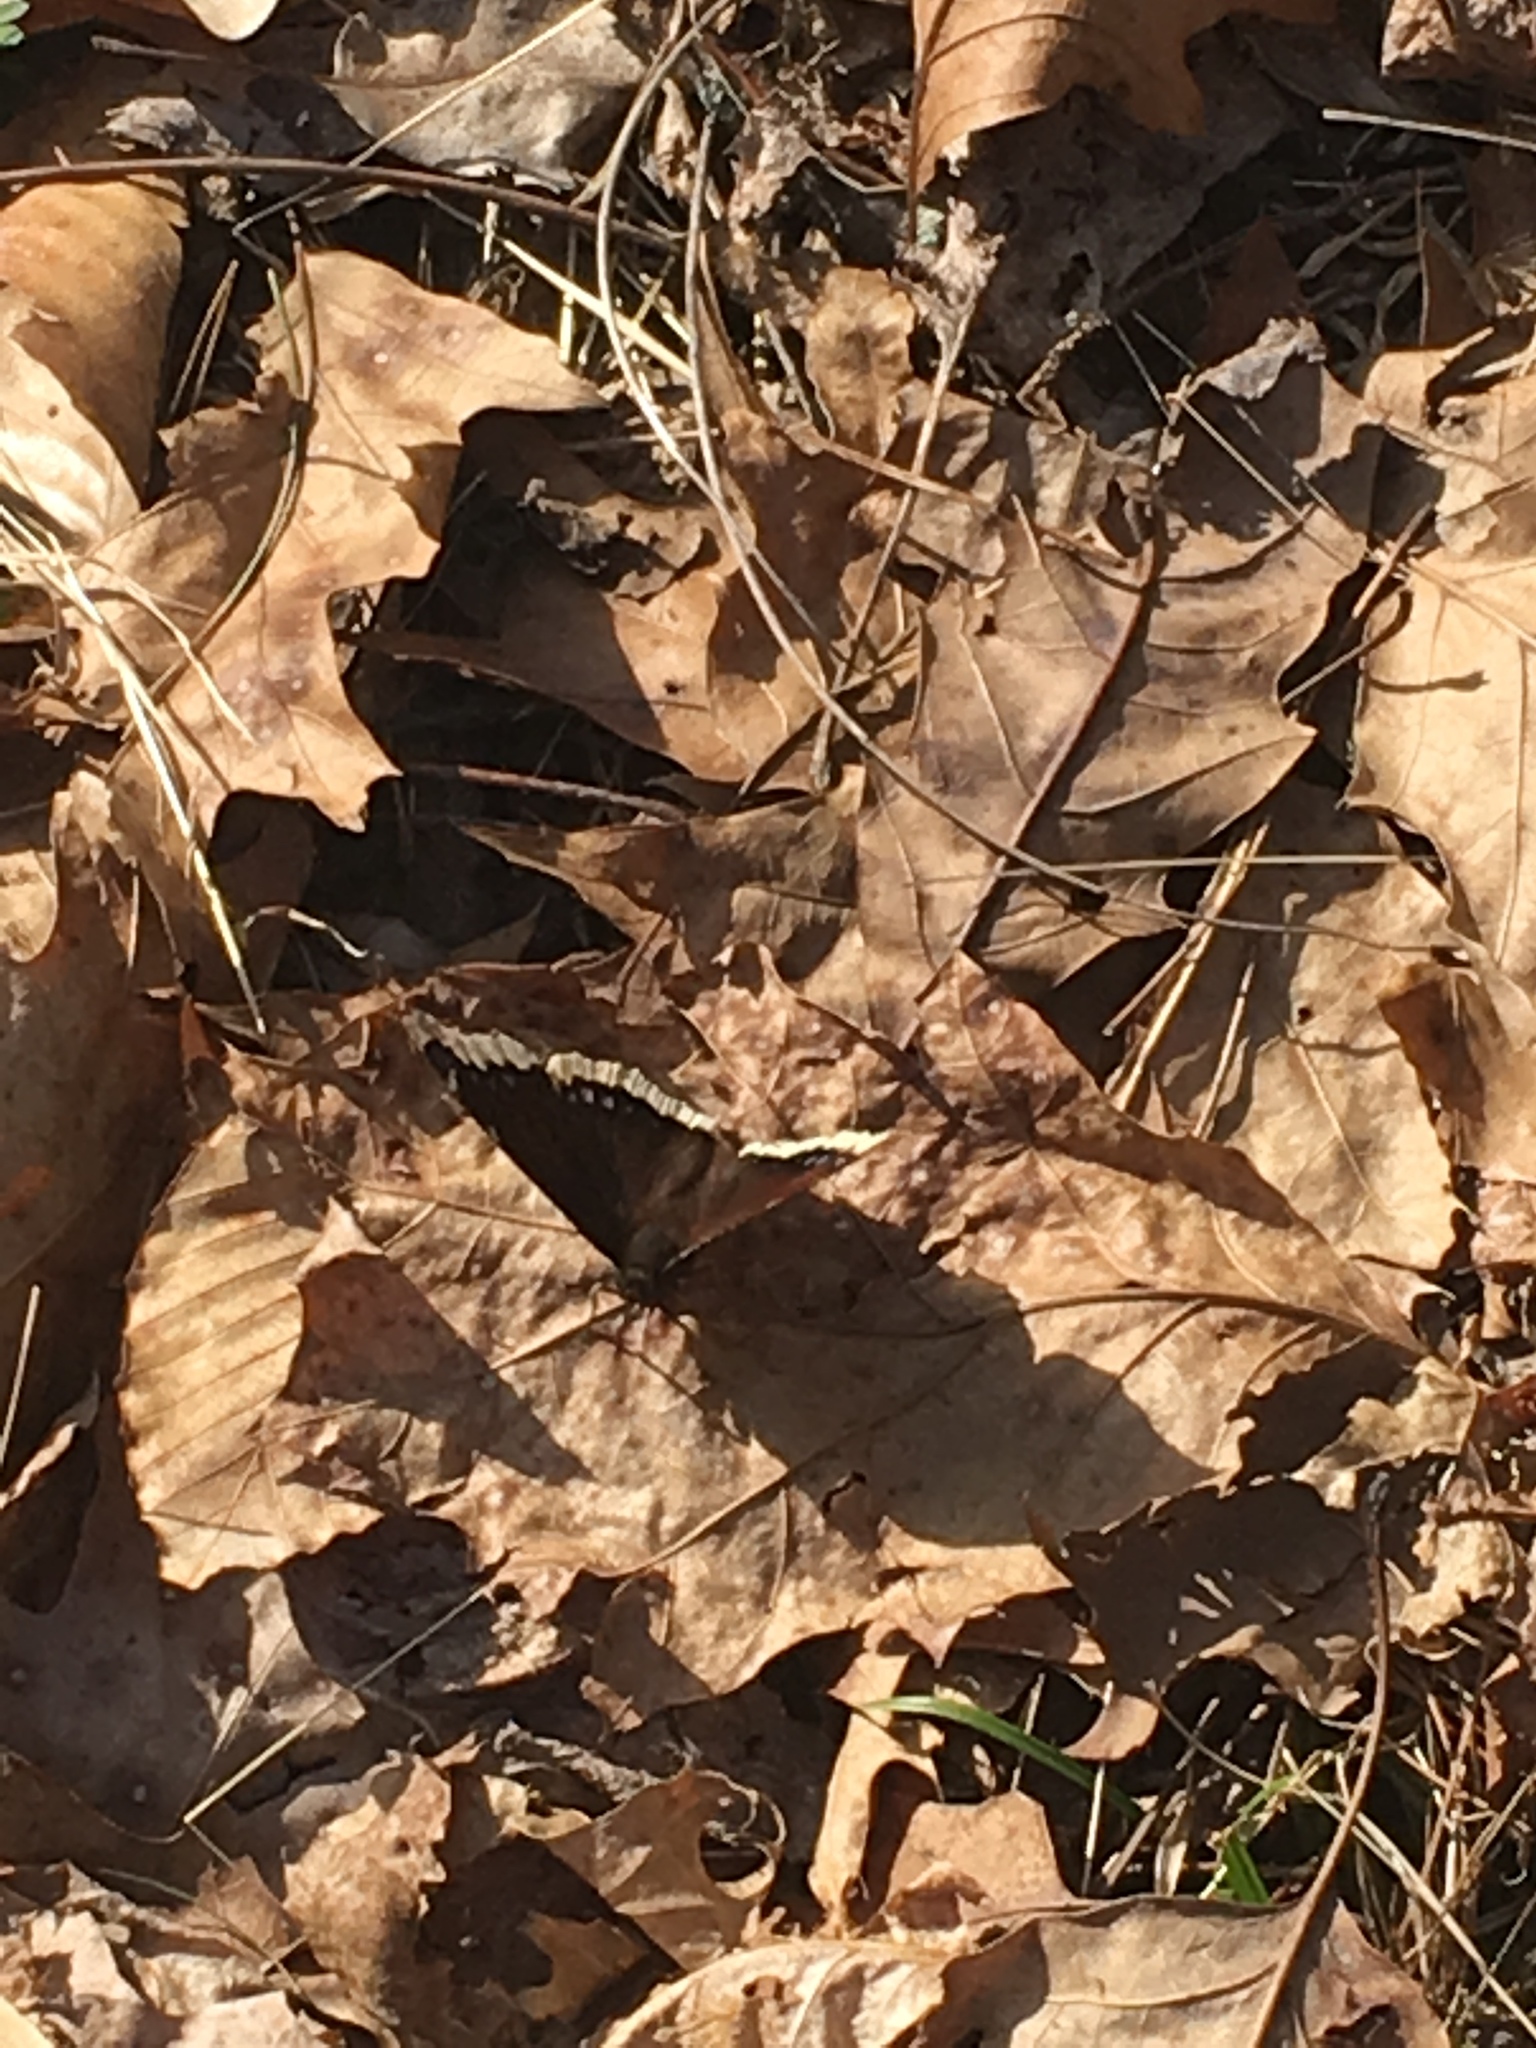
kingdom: Animalia
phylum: Arthropoda
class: Insecta
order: Lepidoptera
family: Nymphalidae
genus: Nymphalis
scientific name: Nymphalis antiopa
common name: Camberwell beauty
